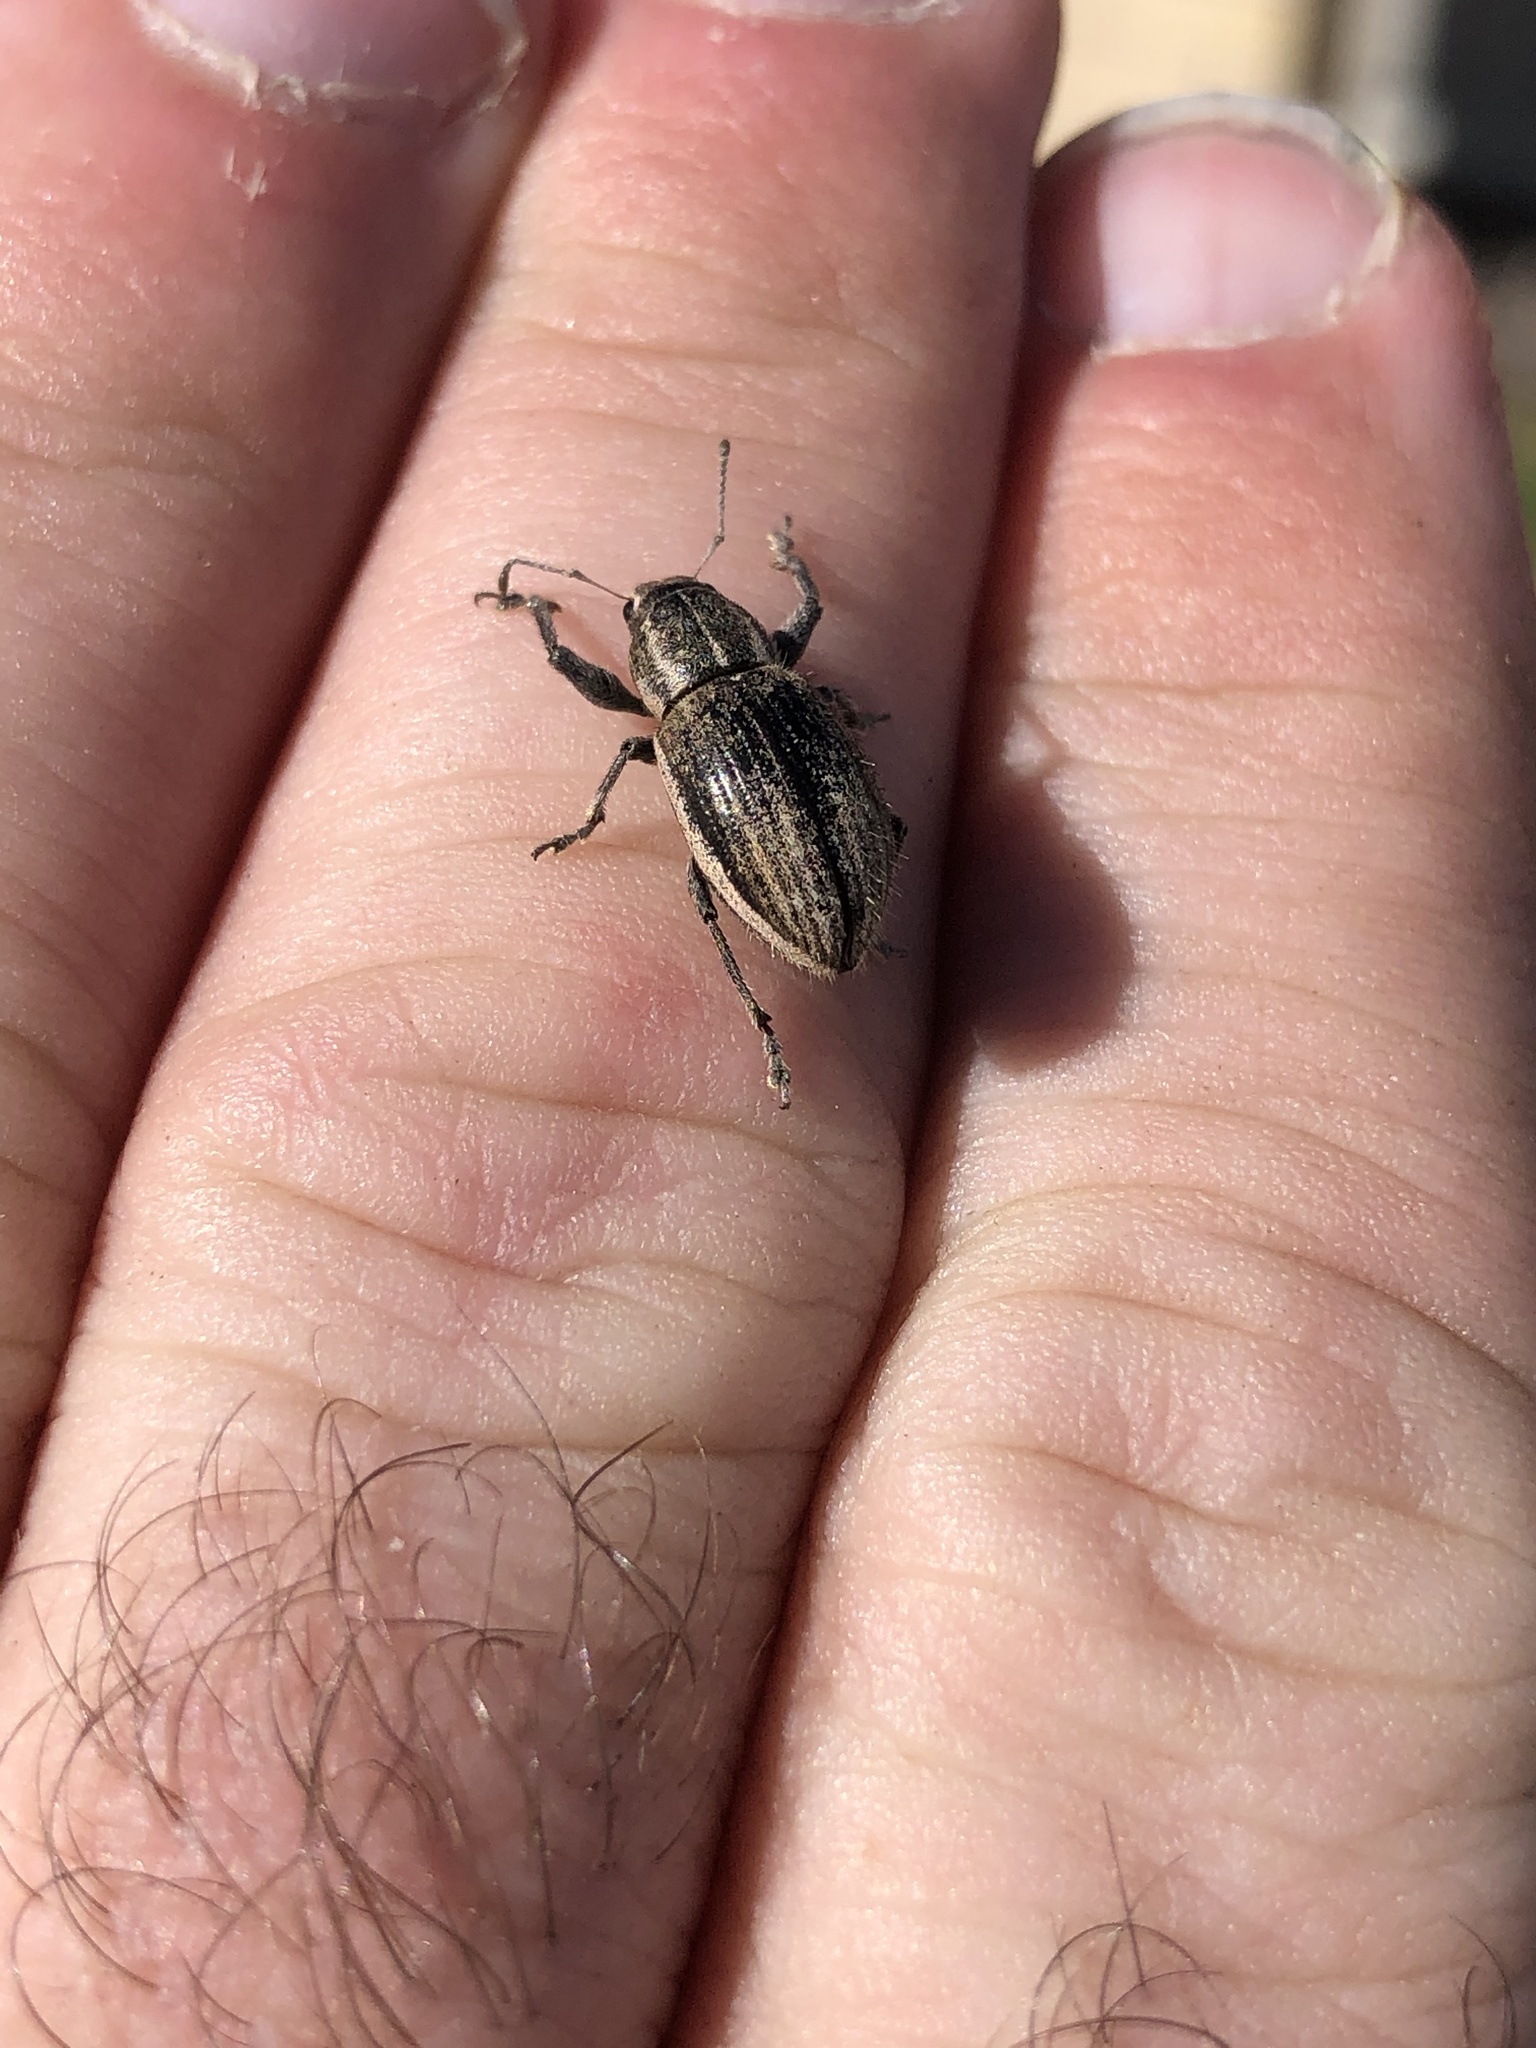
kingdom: Animalia
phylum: Arthropoda
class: Insecta
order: Coleoptera
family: Curculionidae
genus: Naupactus
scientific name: Naupactus leucoloma
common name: Whitefringed beetle
